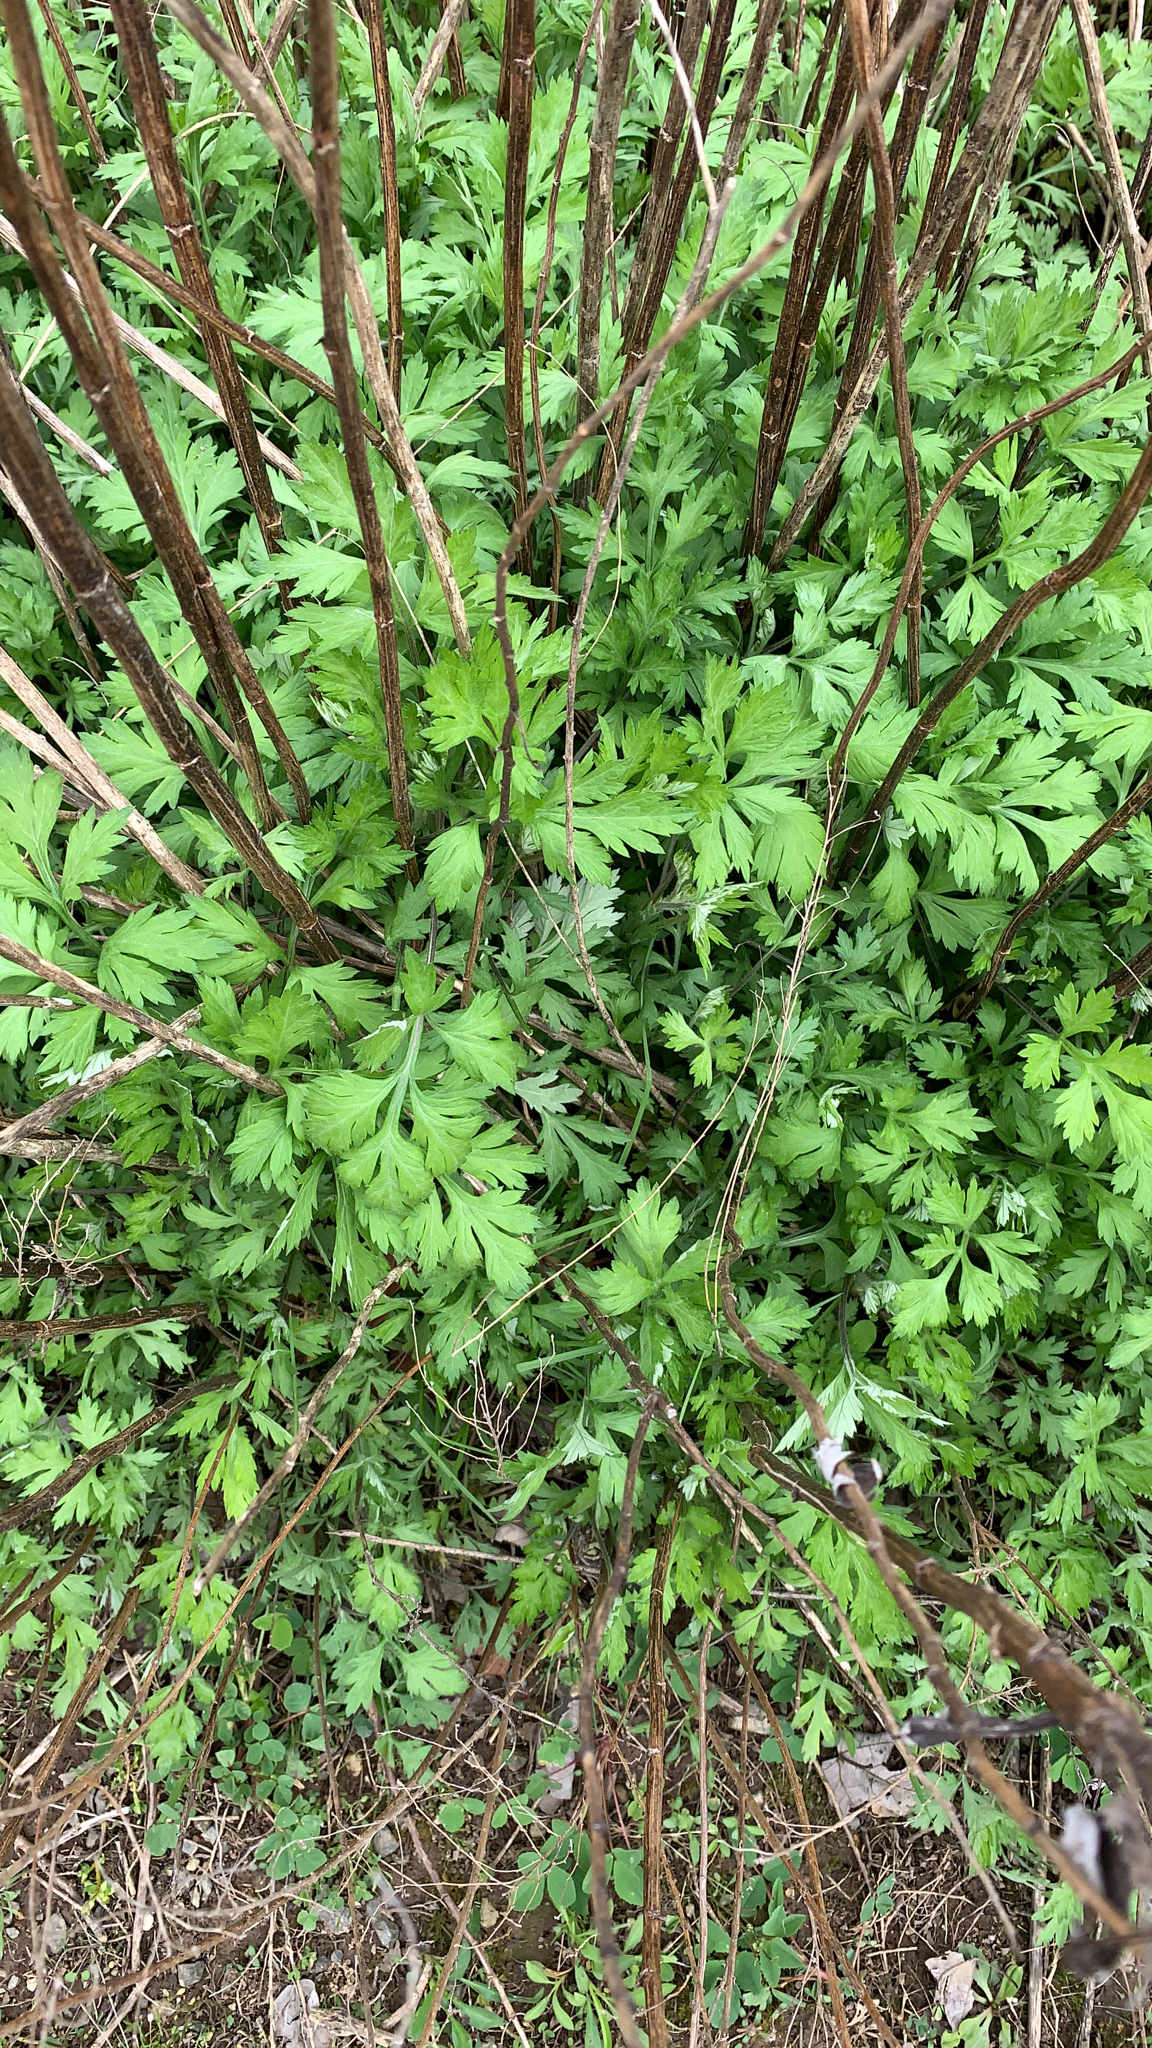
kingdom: Plantae
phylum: Tracheophyta
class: Magnoliopsida
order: Asterales
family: Asteraceae
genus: Artemisia
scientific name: Artemisia vulgaris
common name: Mugwort
